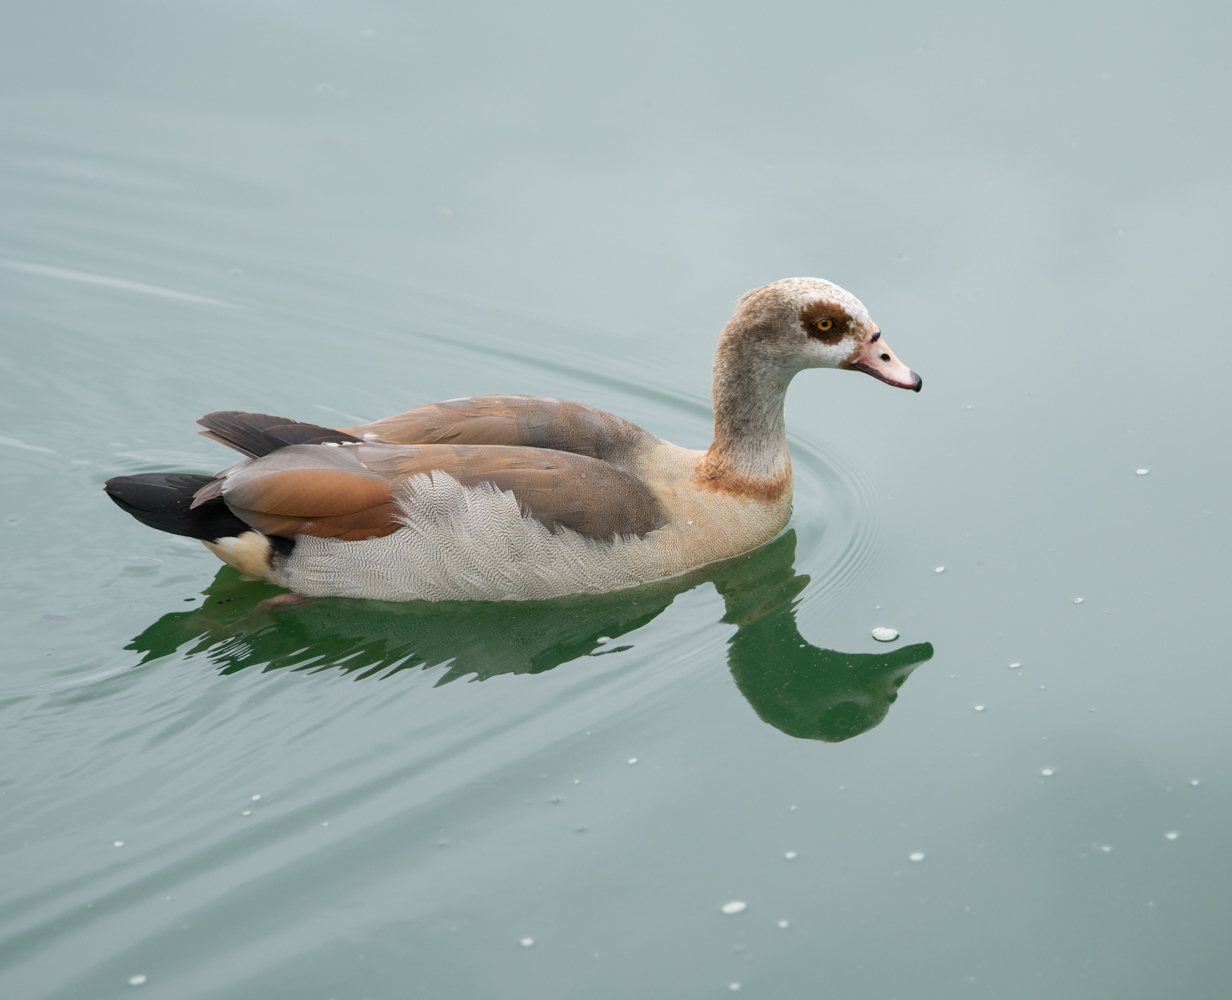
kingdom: Animalia
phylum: Chordata
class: Aves
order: Anseriformes
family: Anatidae
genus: Alopochen
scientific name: Alopochen aegyptiaca
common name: Egyptian goose
